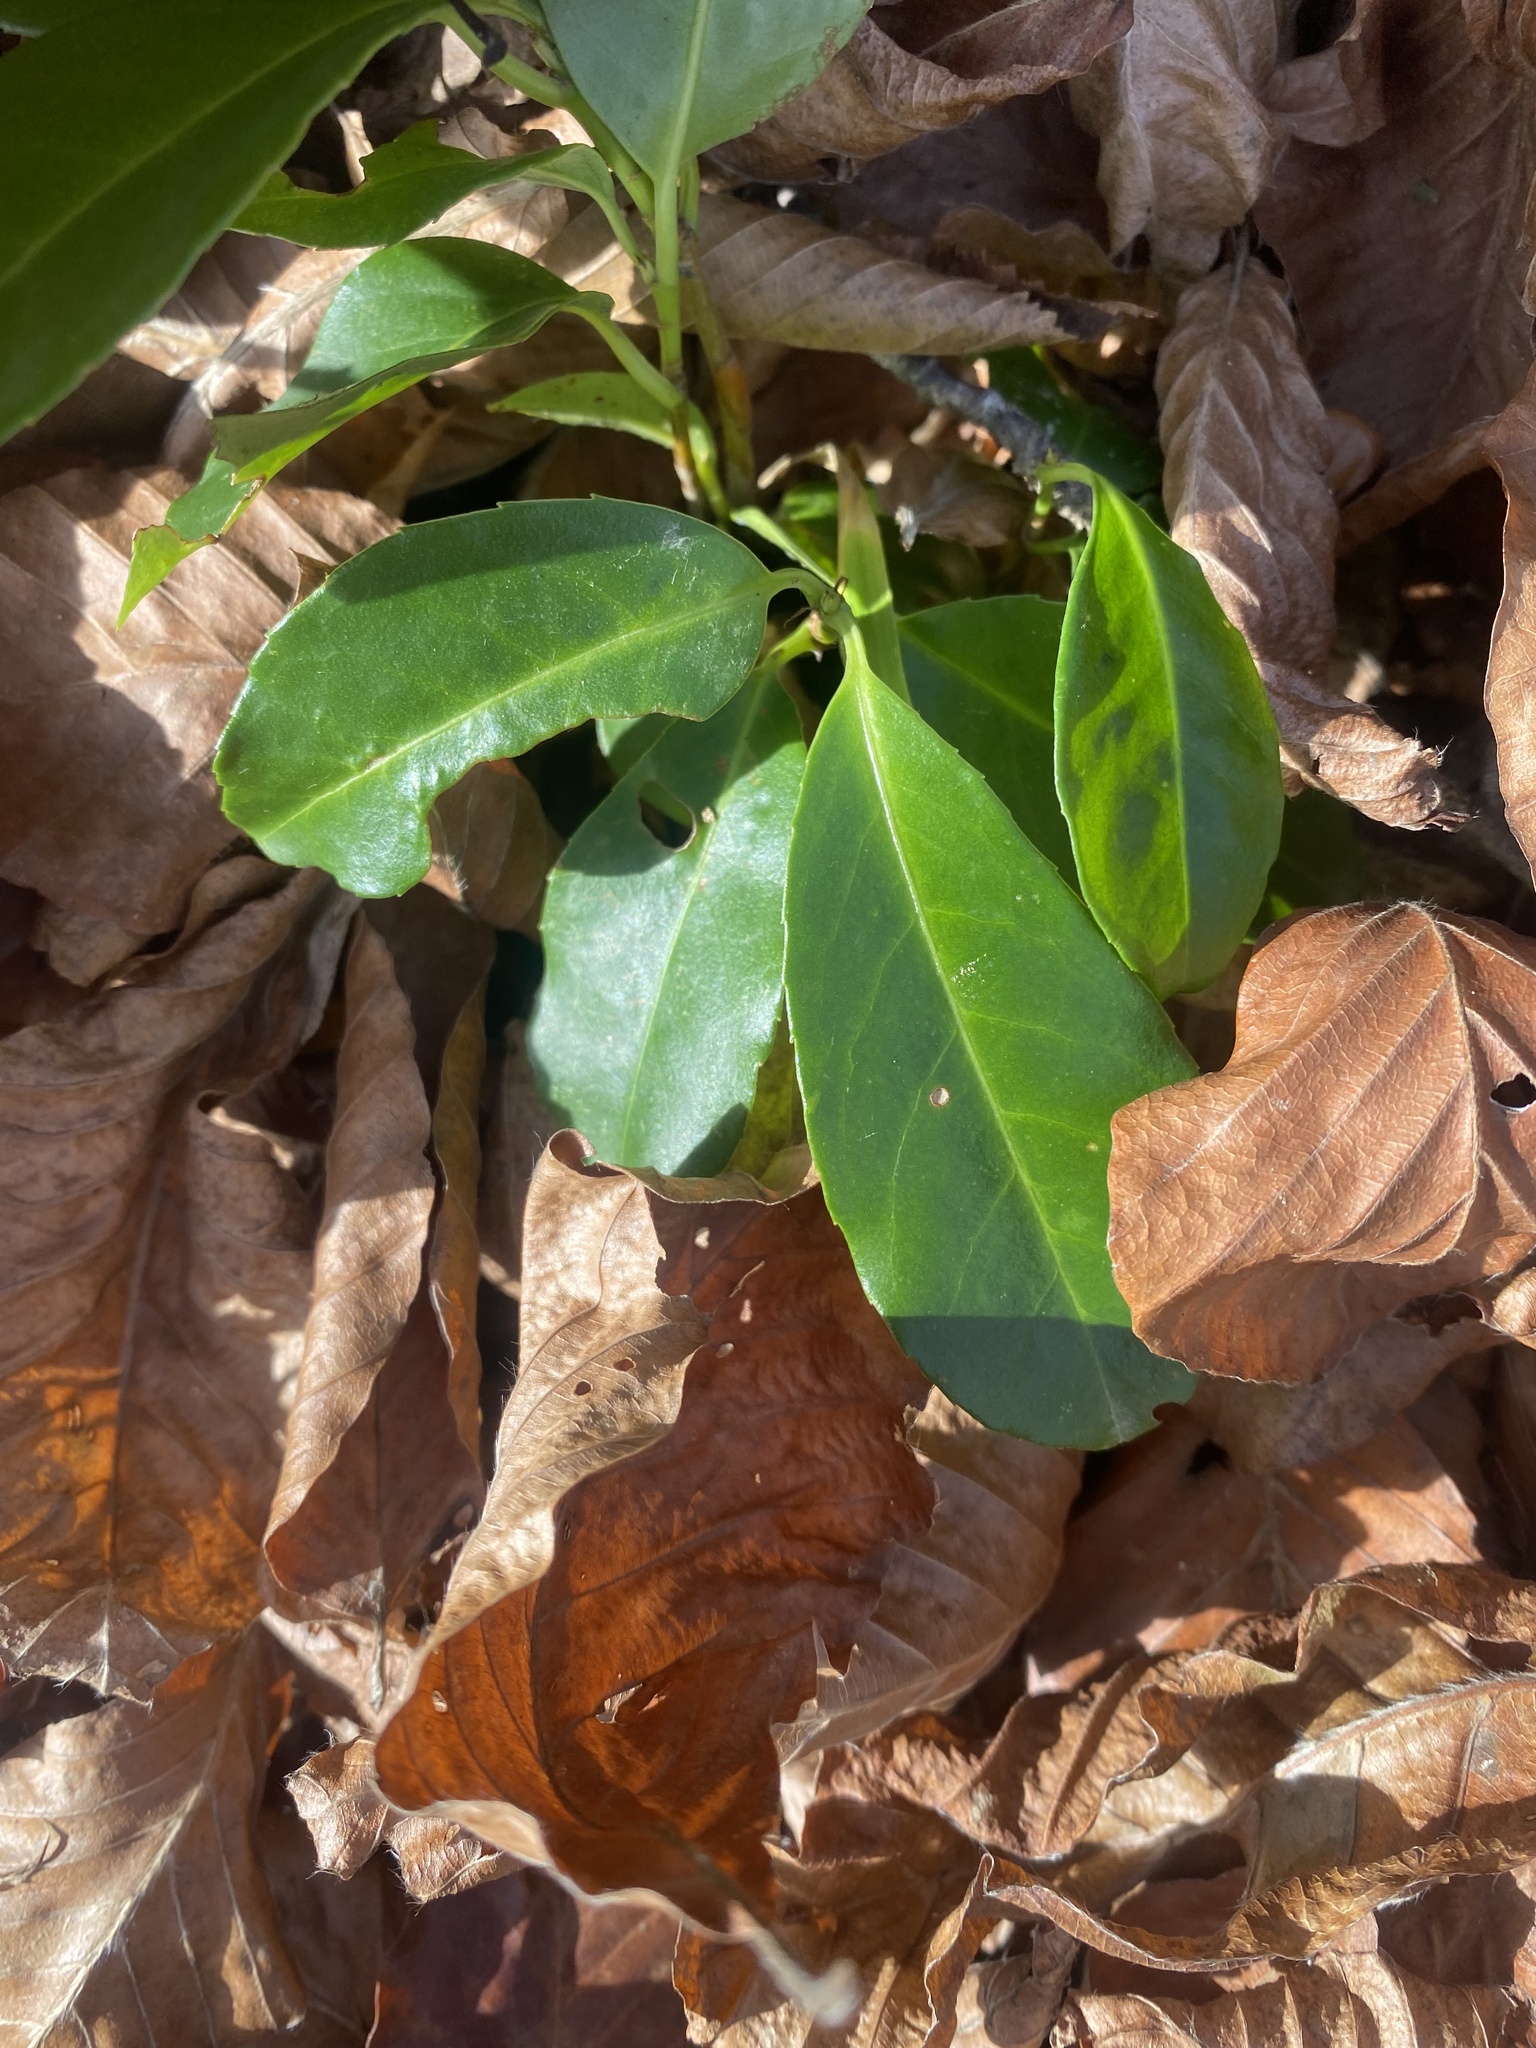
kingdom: Plantae
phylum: Tracheophyta
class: Magnoliopsida
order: Rosales
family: Rosaceae
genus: Prunus
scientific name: Prunus laurocerasus
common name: Cherry laurel
